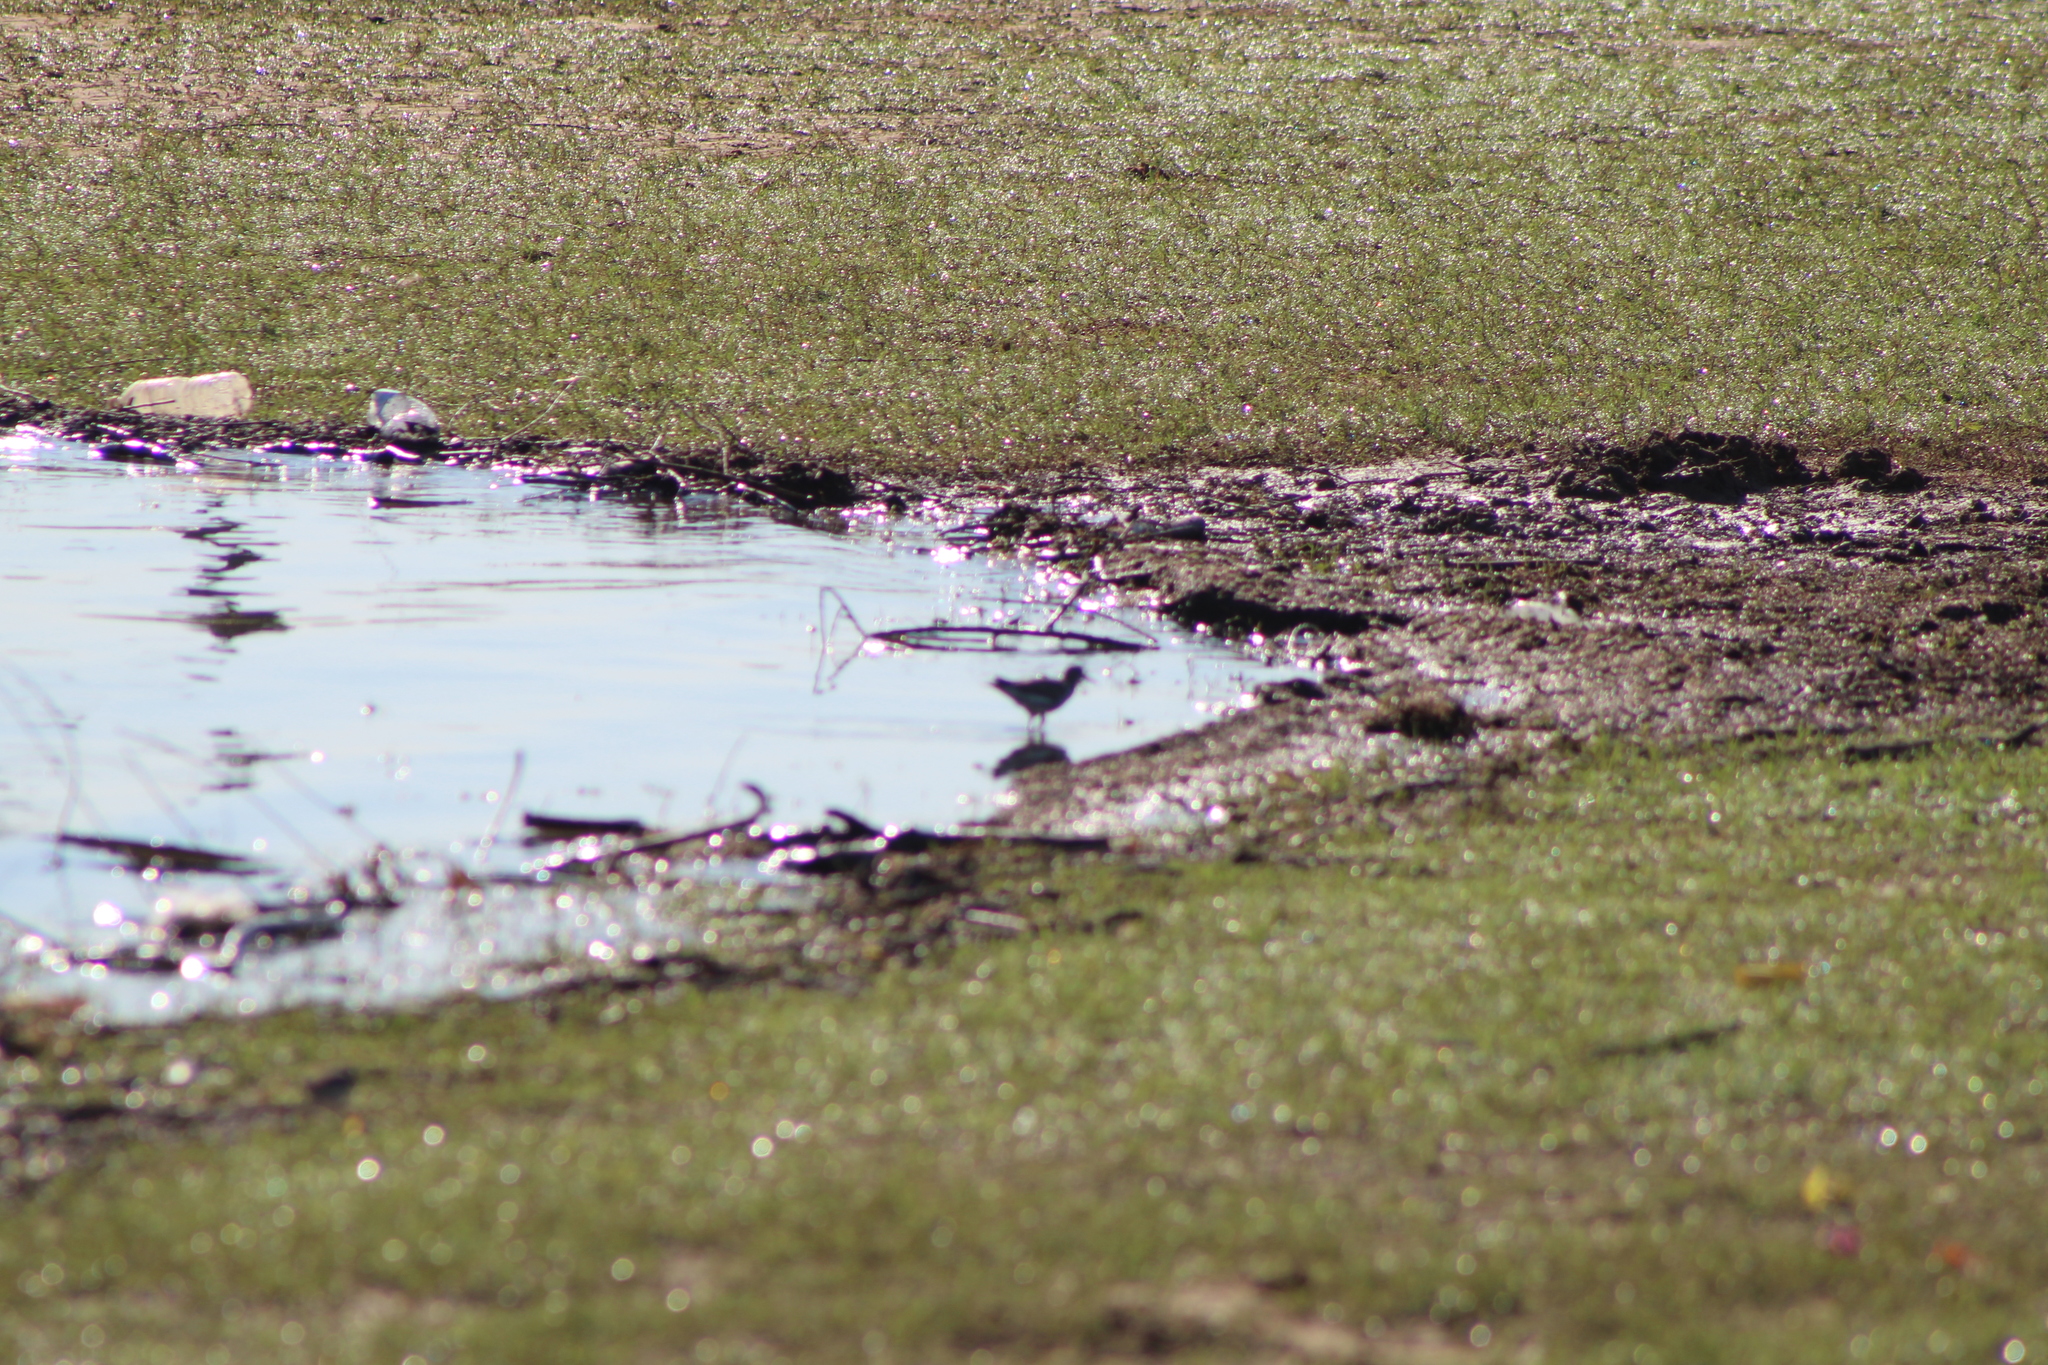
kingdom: Animalia
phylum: Chordata
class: Aves
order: Charadriiformes
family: Scolopacidae
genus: Actitis
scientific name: Actitis macularius
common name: Spotted sandpiper
